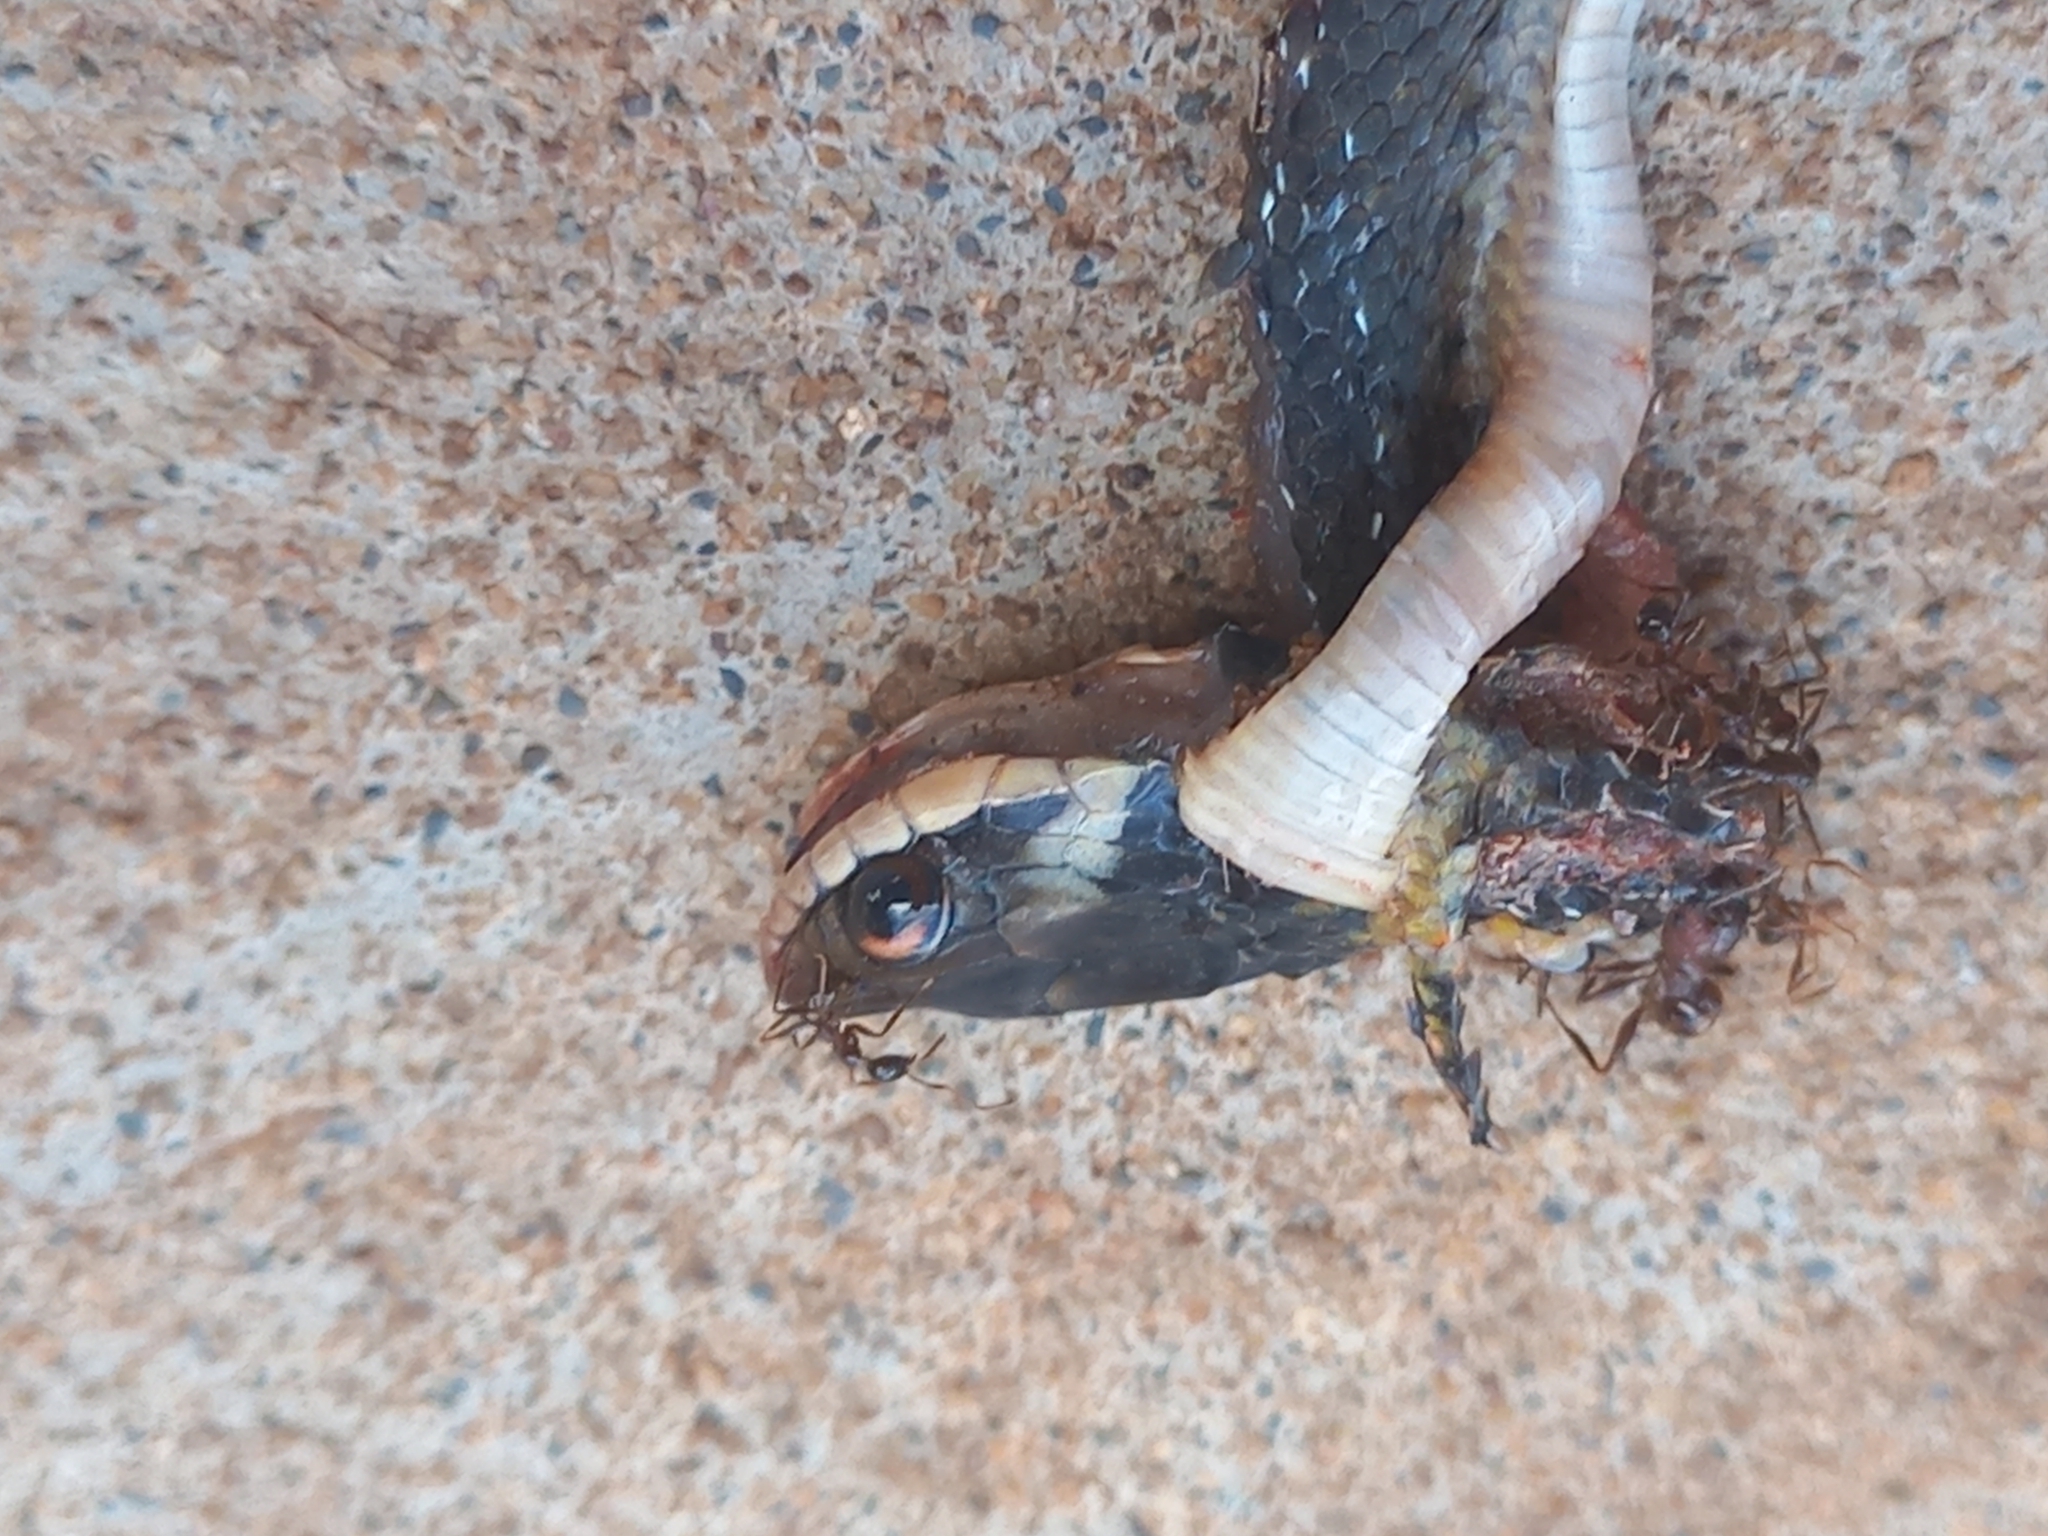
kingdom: Animalia
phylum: Chordata
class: Squamata
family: Colubridae
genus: Erythrolamprus
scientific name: Erythrolamprus oligolepis
